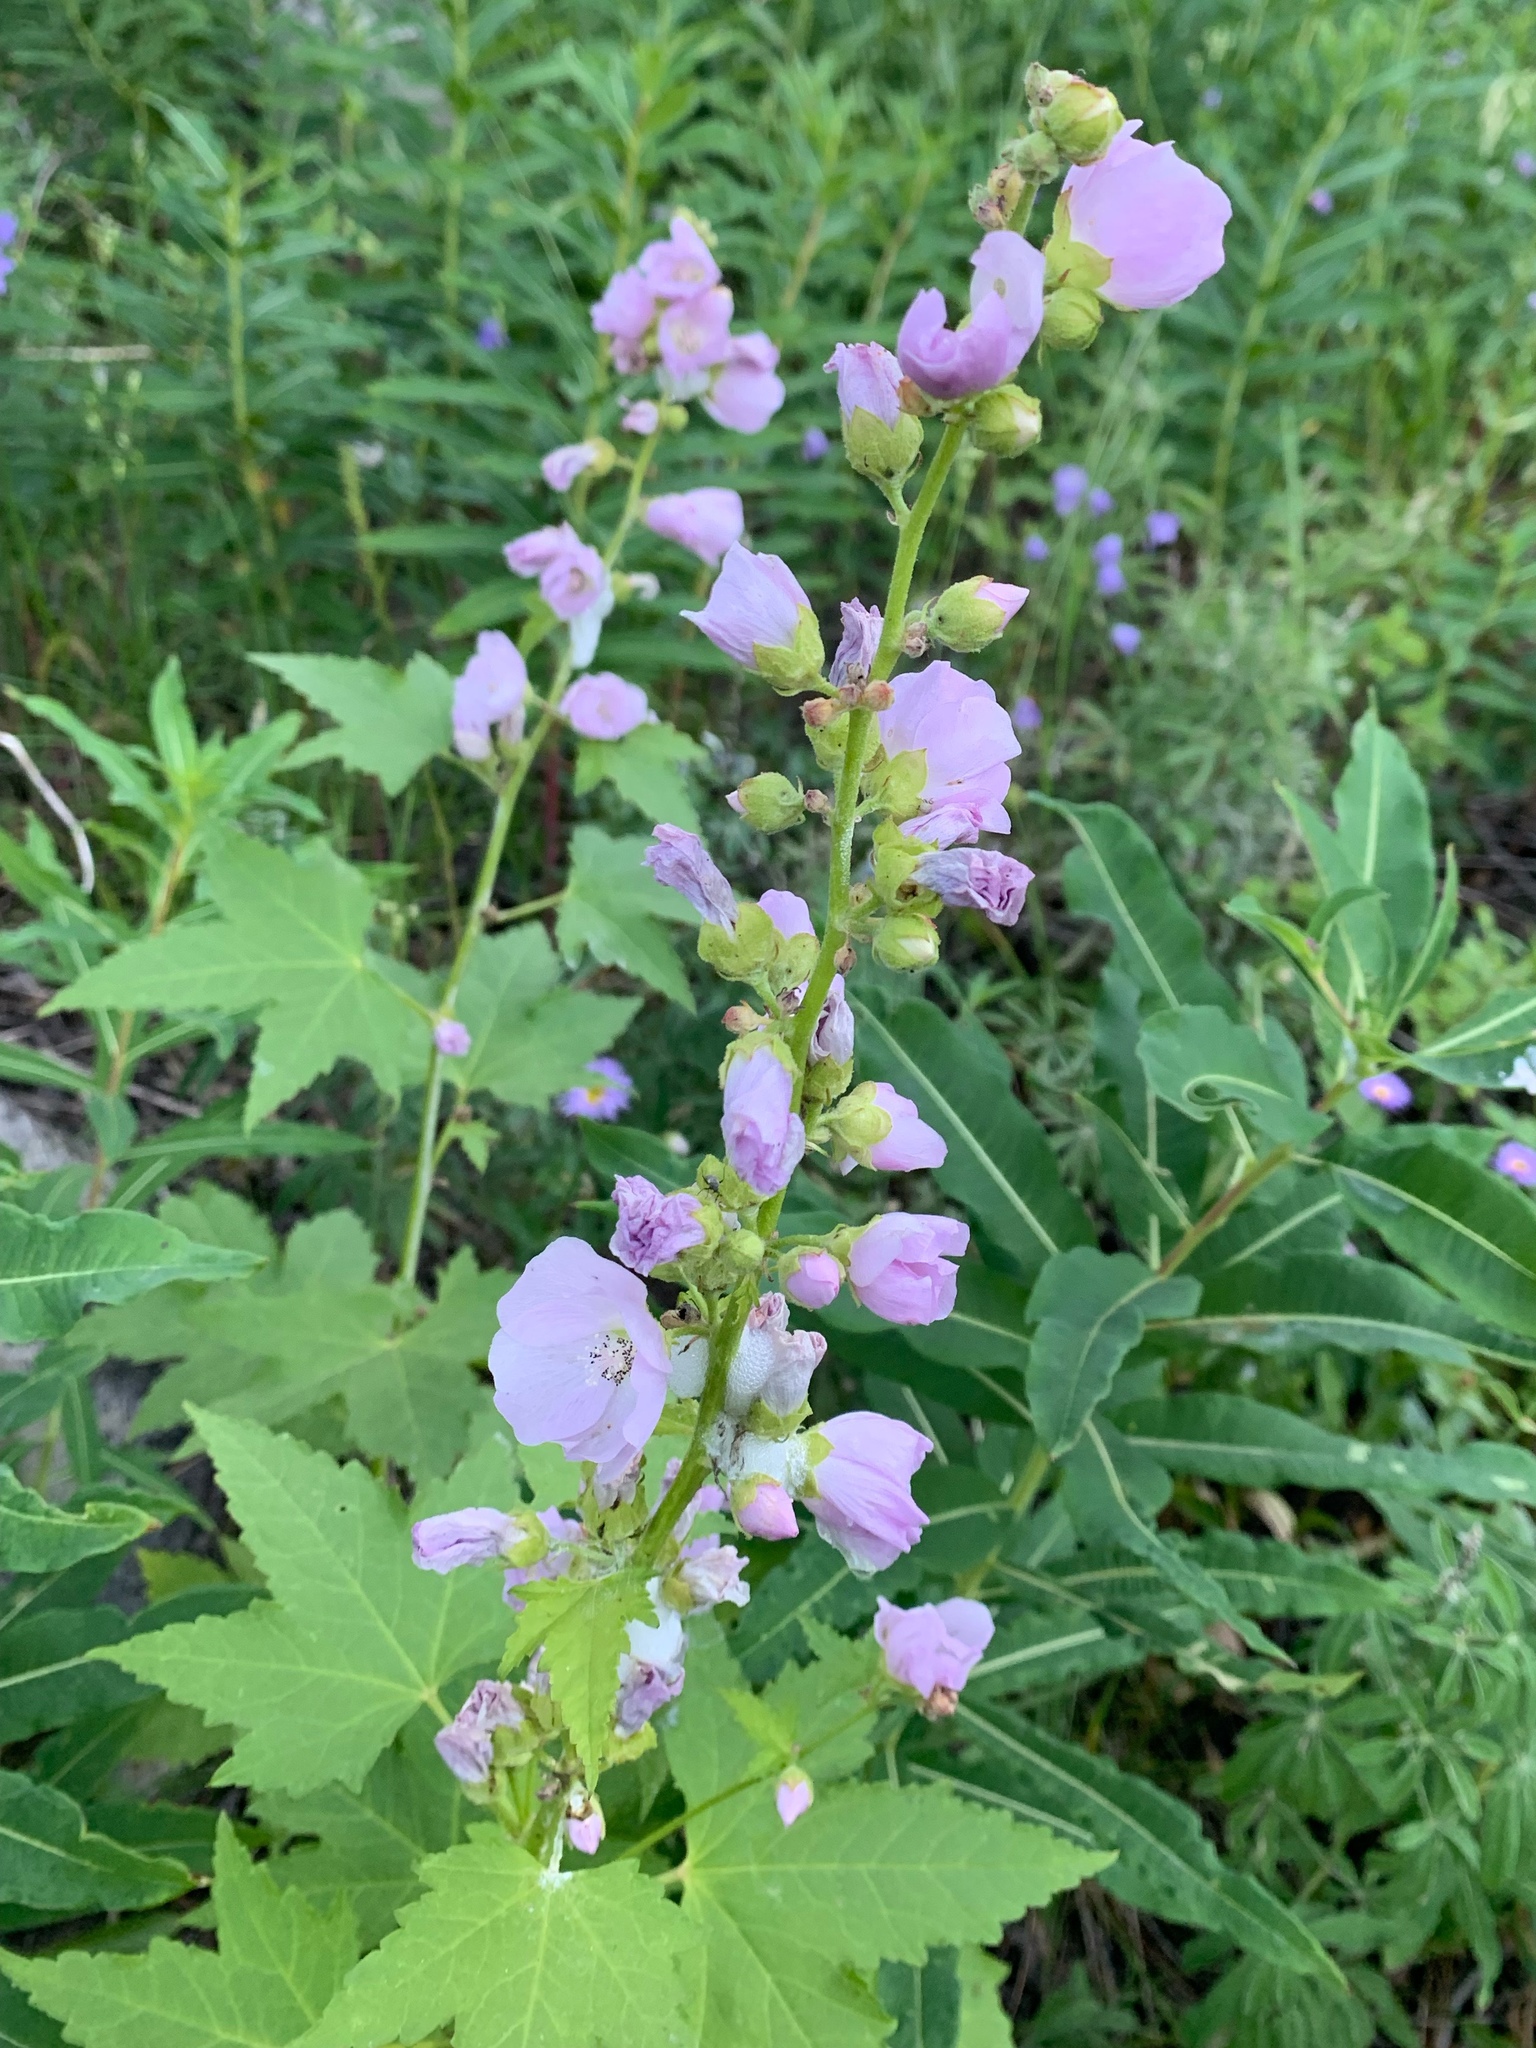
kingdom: Plantae
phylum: Tracheophyta
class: Magnoliopsida
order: Malvales
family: Malvaceae
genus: Iliamna
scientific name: Iliamna rivularis
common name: Wild hollyhock
